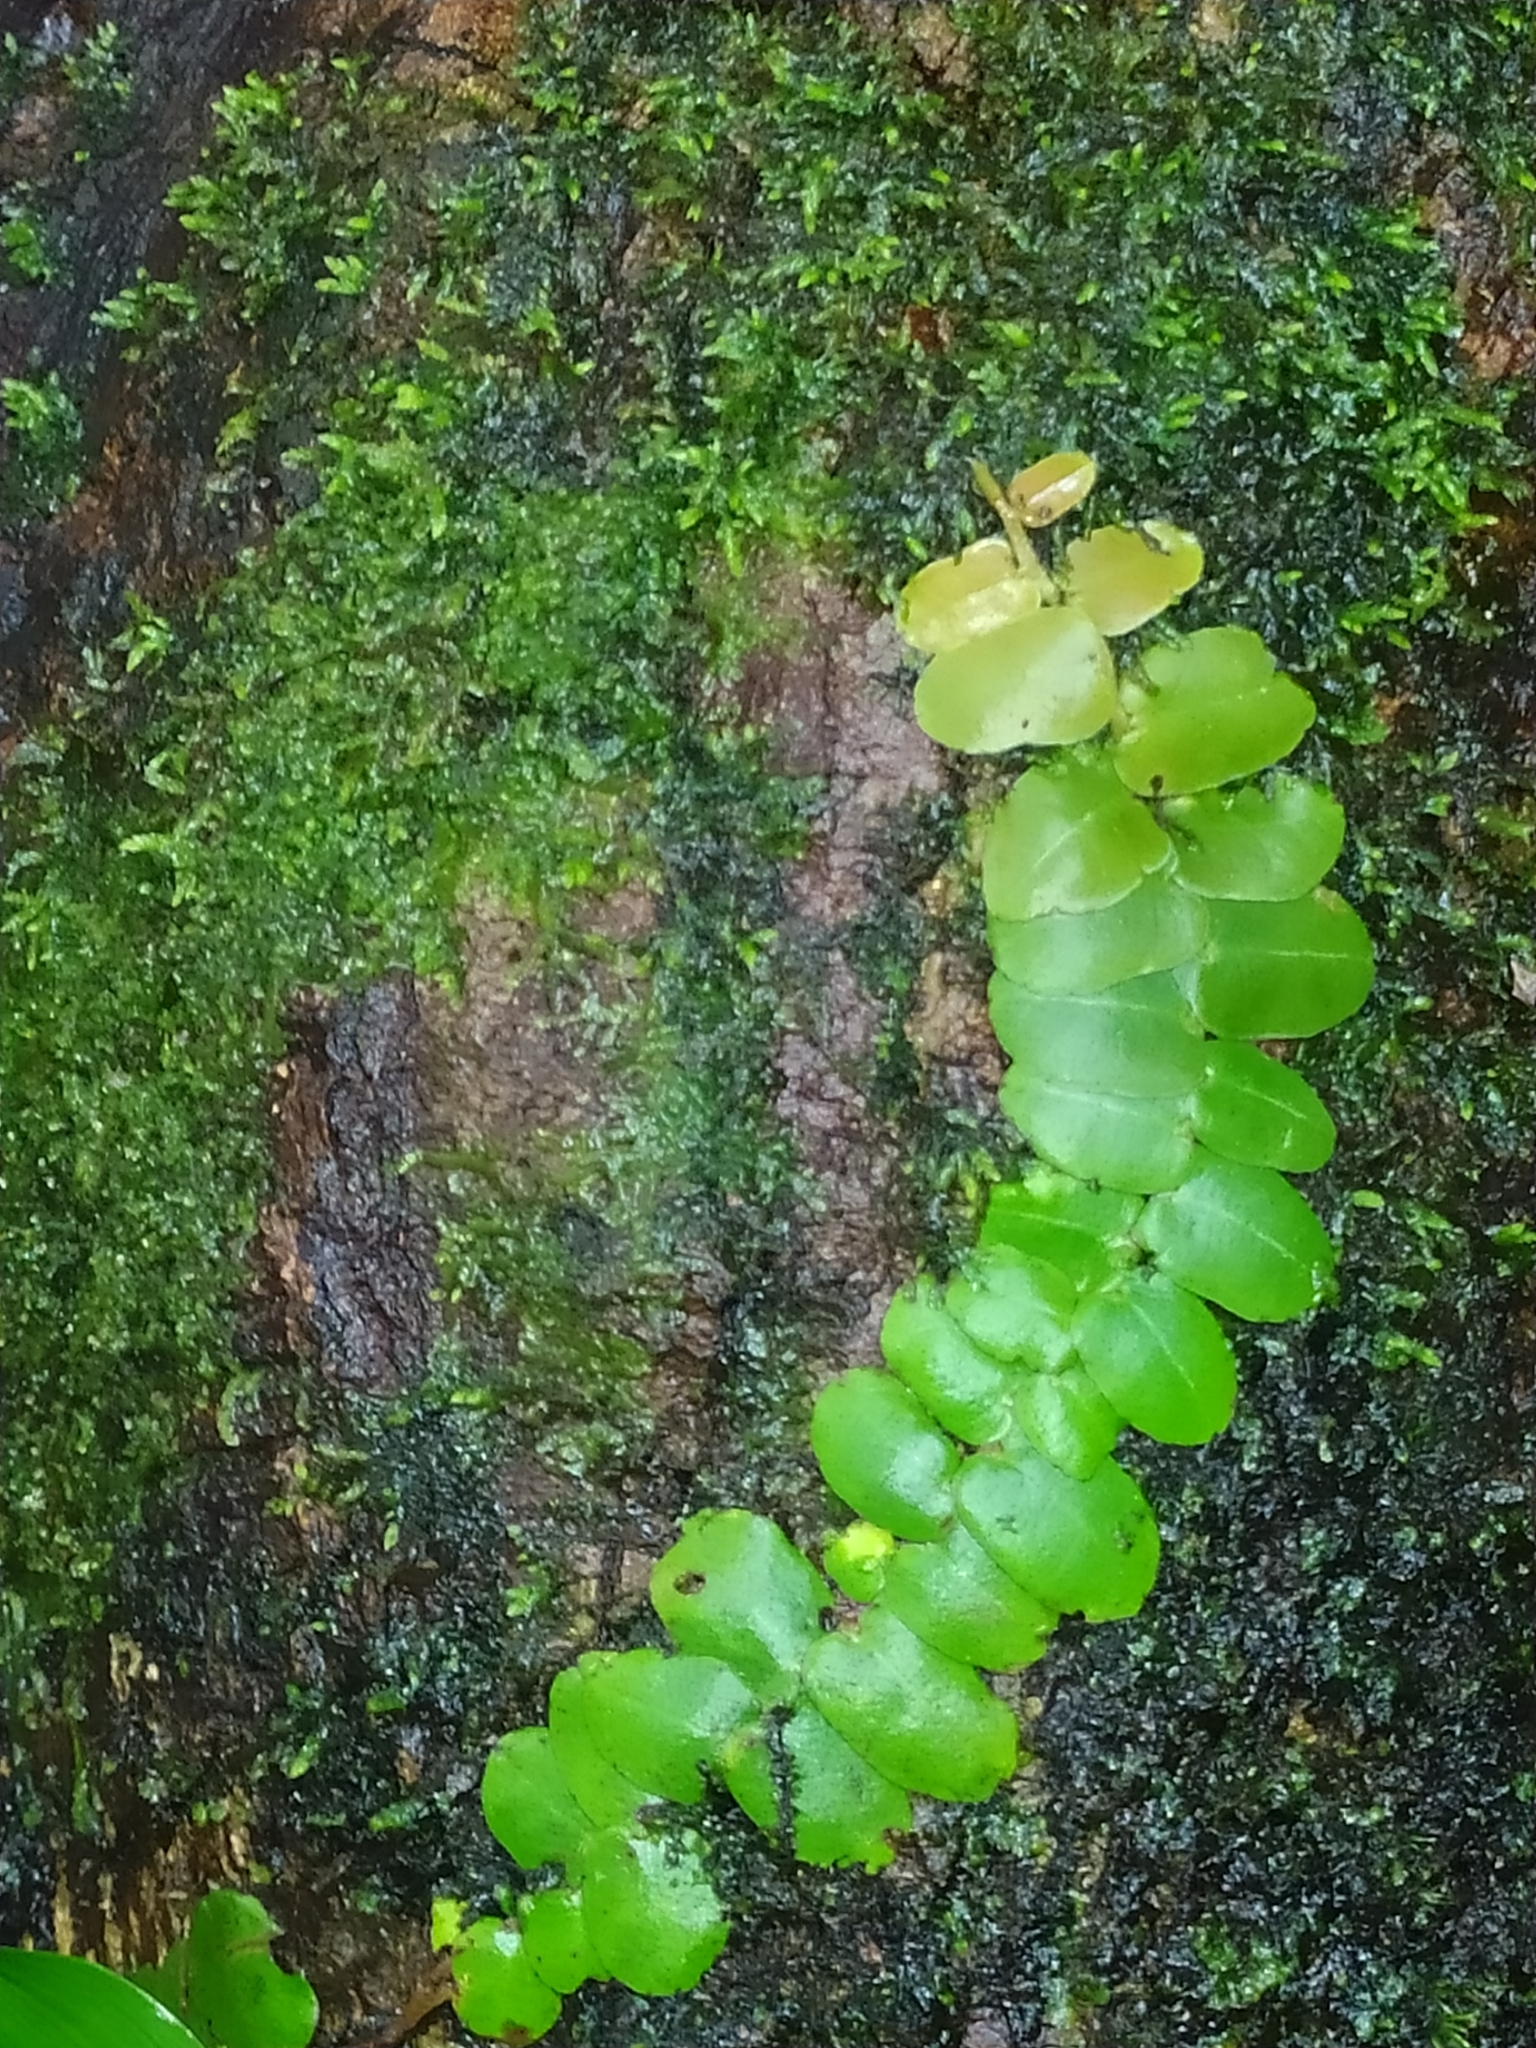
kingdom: Plantae
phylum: Tracheophyta
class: Magnoliopsida
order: Ericales
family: Marcgraviaceae
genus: Marcgravia
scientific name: Marcgravia
